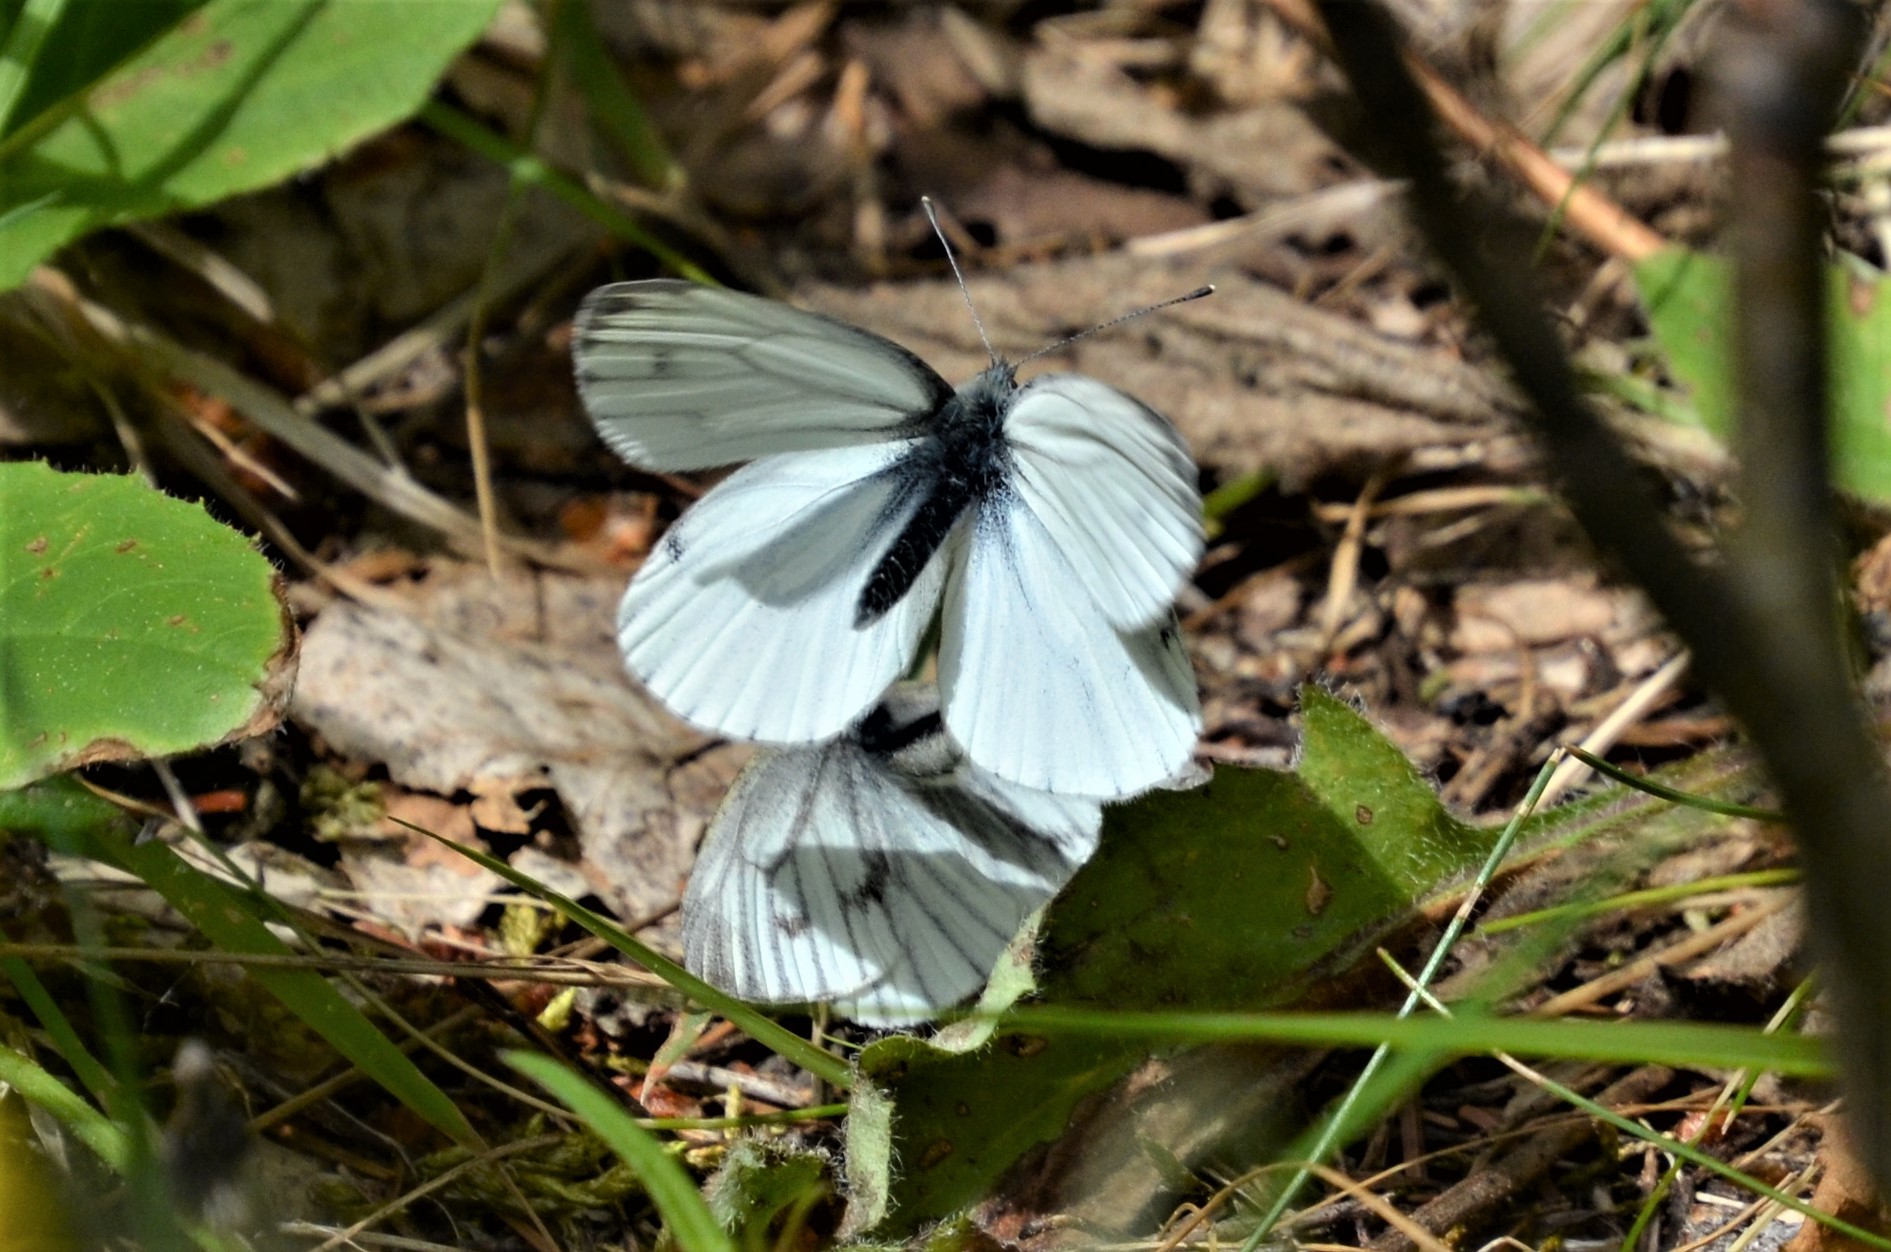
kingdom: Animalia
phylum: Arthropoda
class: Insecta
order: Lepidoptera
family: Pieridae
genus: Pieris
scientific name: Pieris napi
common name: Green-veined white
